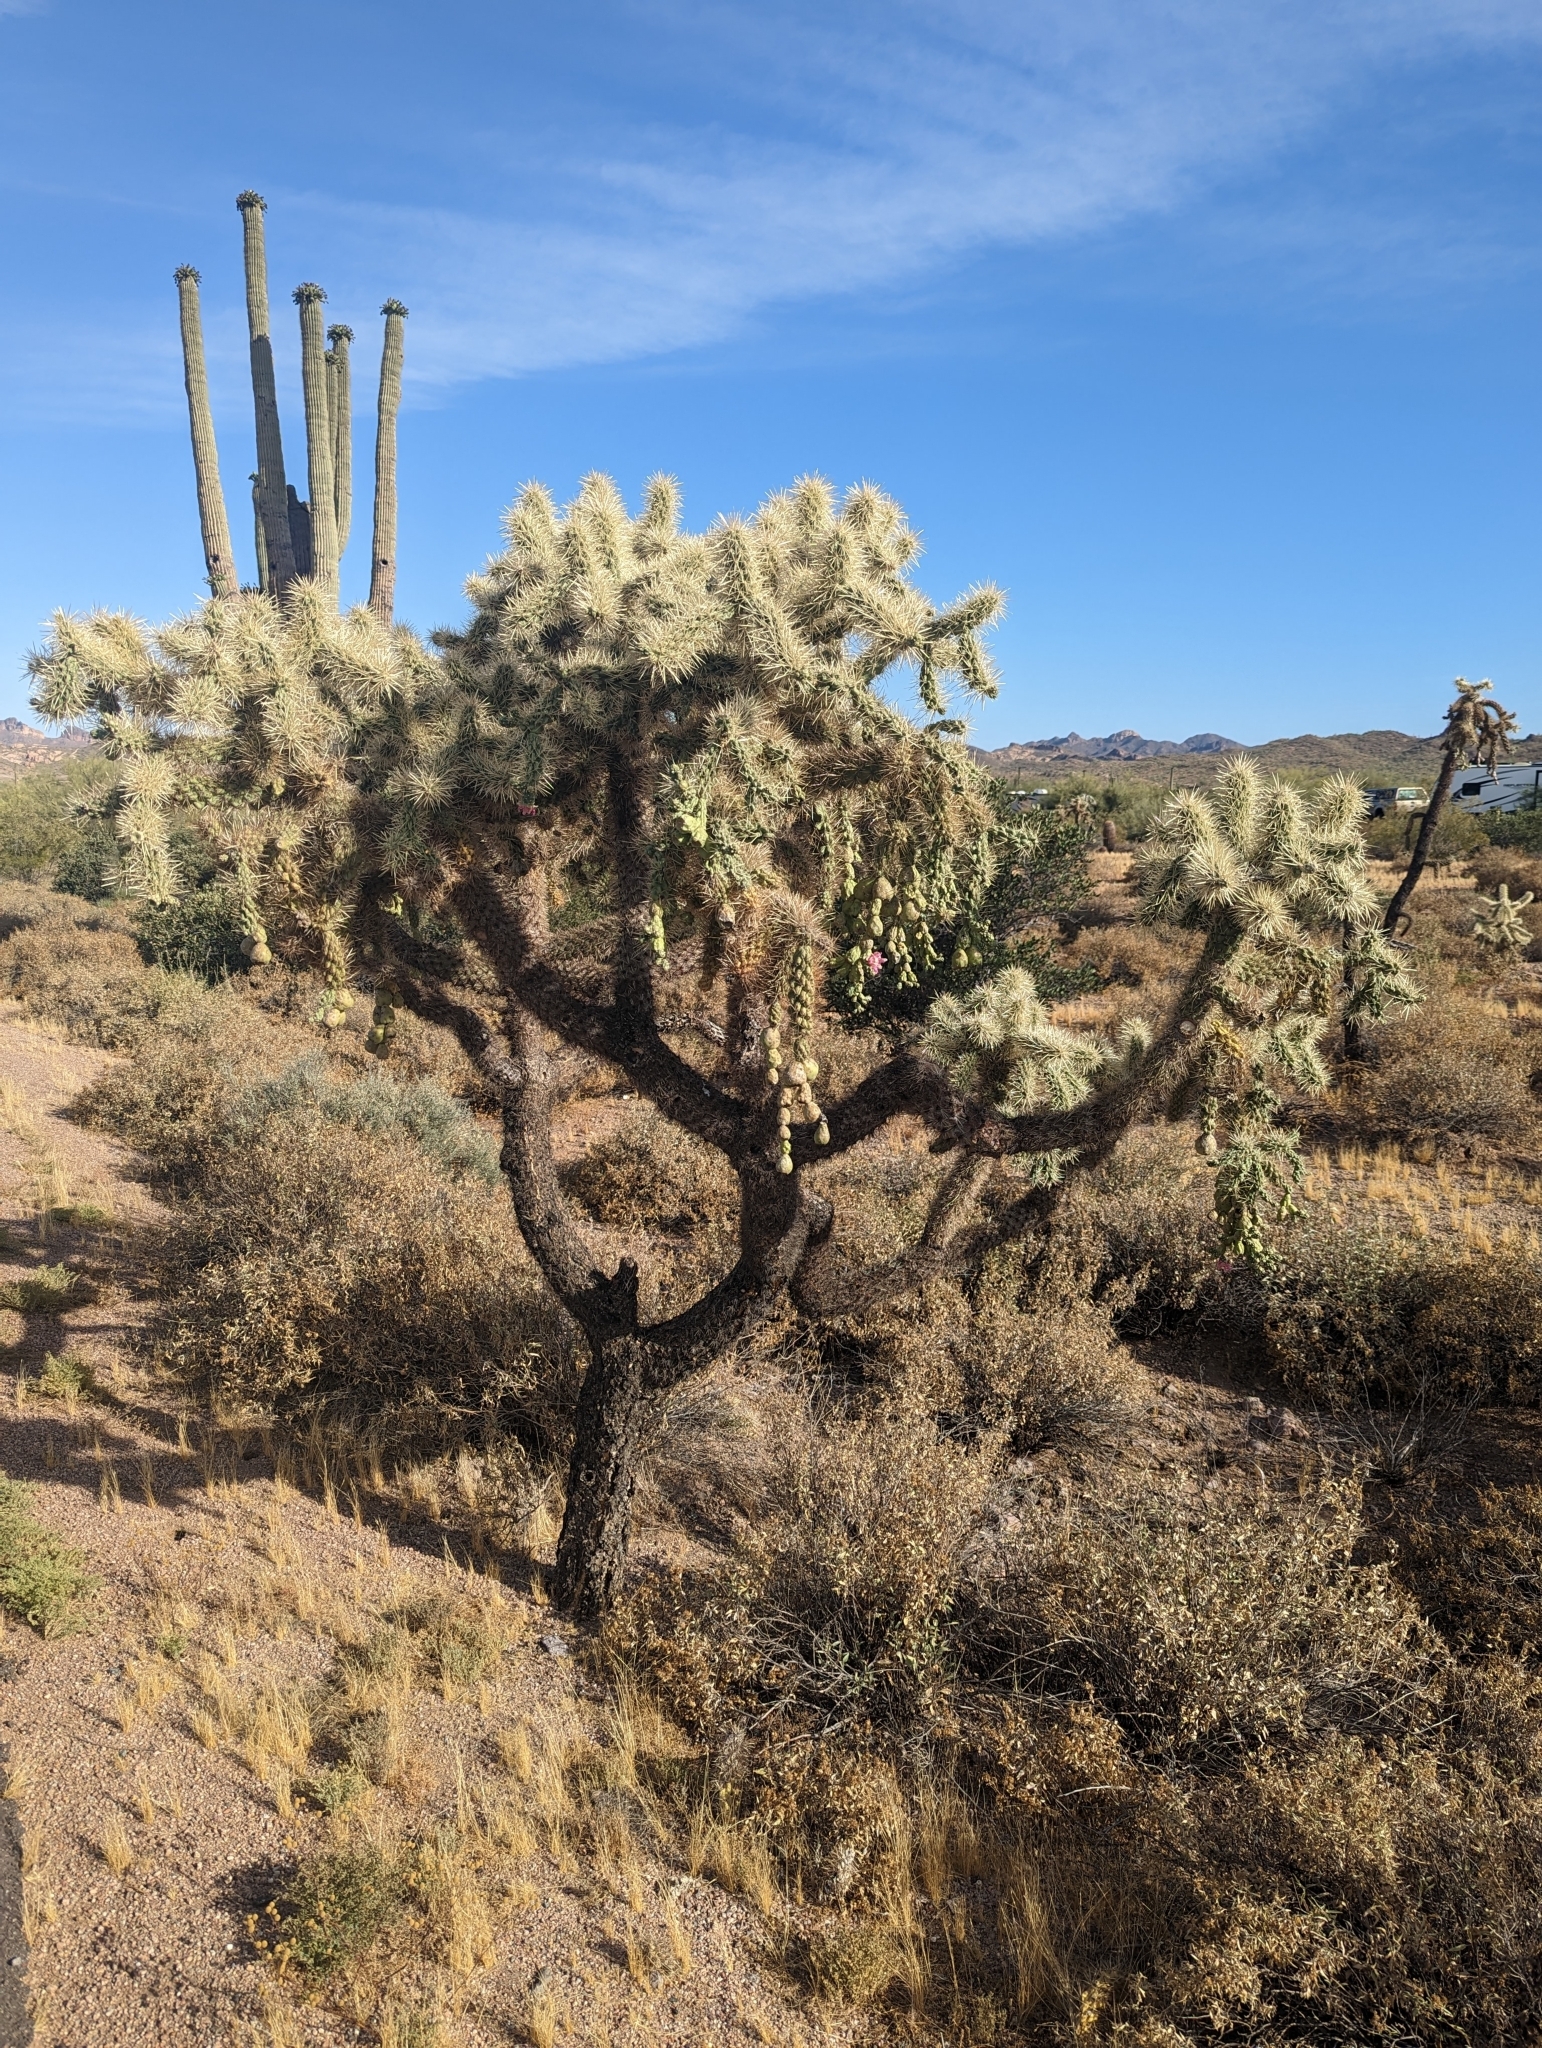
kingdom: Plantae
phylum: Tracheophyta
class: Magnoliopsida
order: Caryophyllales
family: Cactaceae
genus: Cylindropuntia
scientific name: Cylindropuntia fulgida
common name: Jumping cholla
